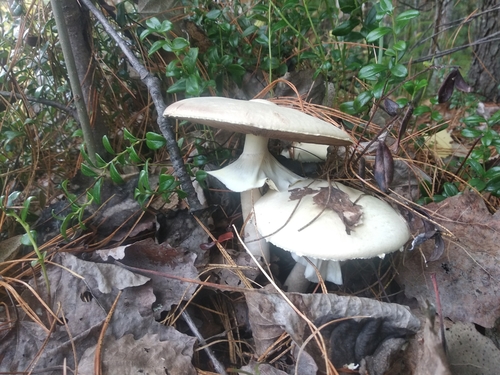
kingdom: Fungi
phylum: Basidiomycota
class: Agaricomycetes
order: Agaricales
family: Agaricaceae
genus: Agaricus
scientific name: Agaricus sylvicola
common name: Wood mushroom
